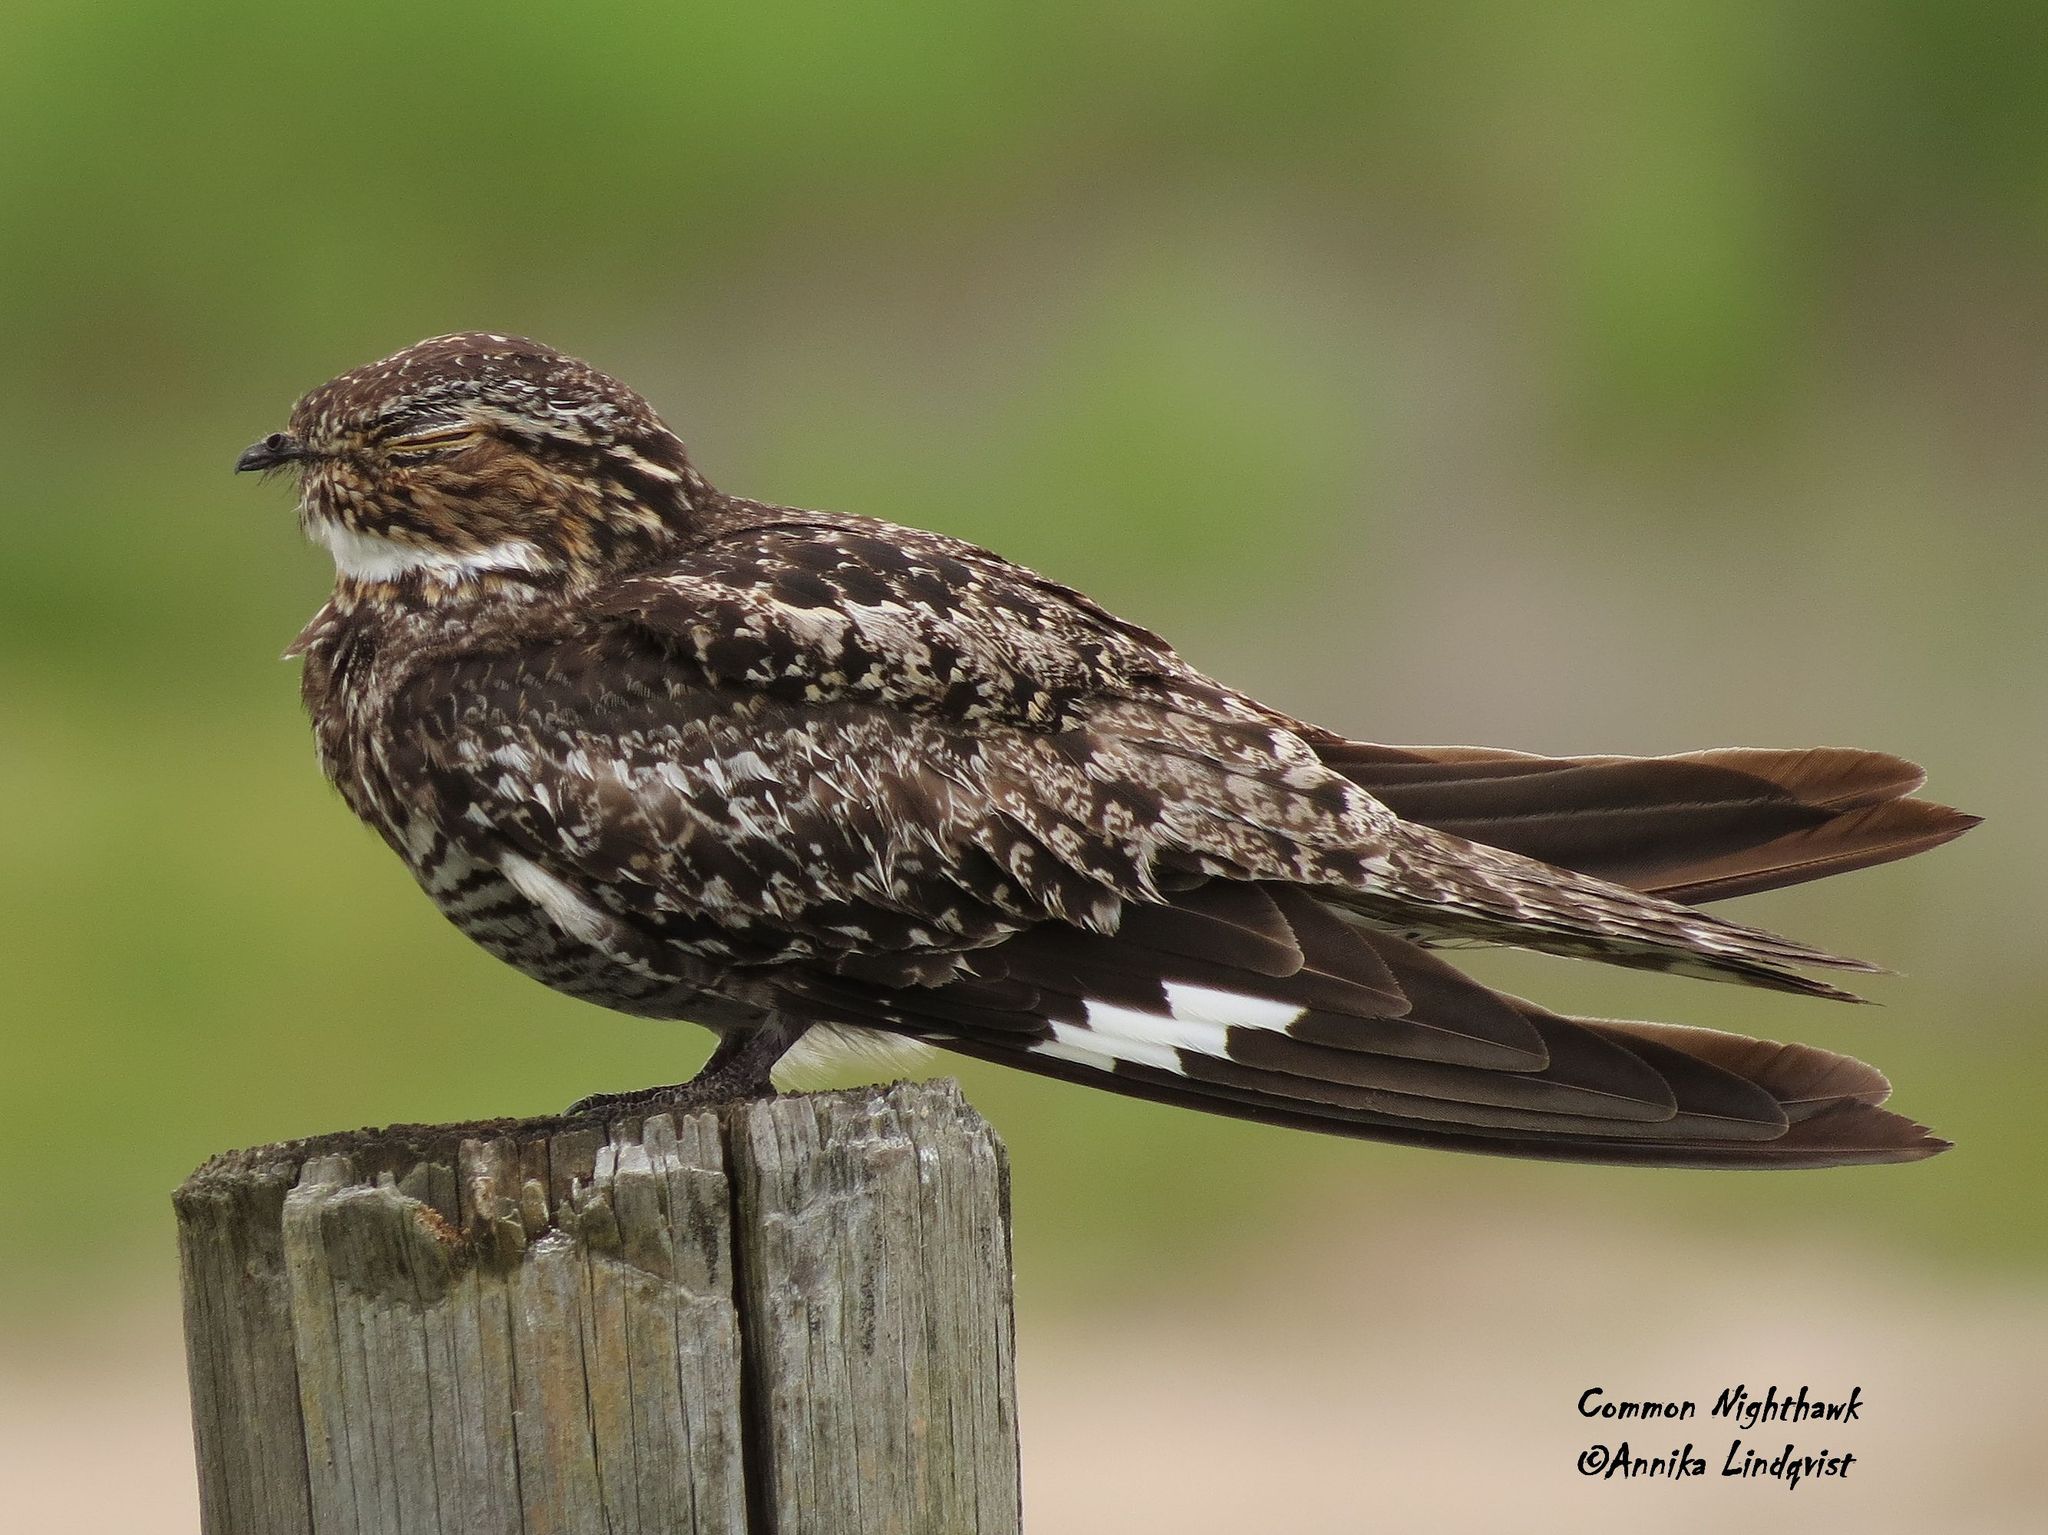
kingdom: Animalia
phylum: Chordata
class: Aves
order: Caprimulgiformes
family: Caprimulgidae
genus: Chordeiles
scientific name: Chordeiles minor
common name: Common nighthawk
